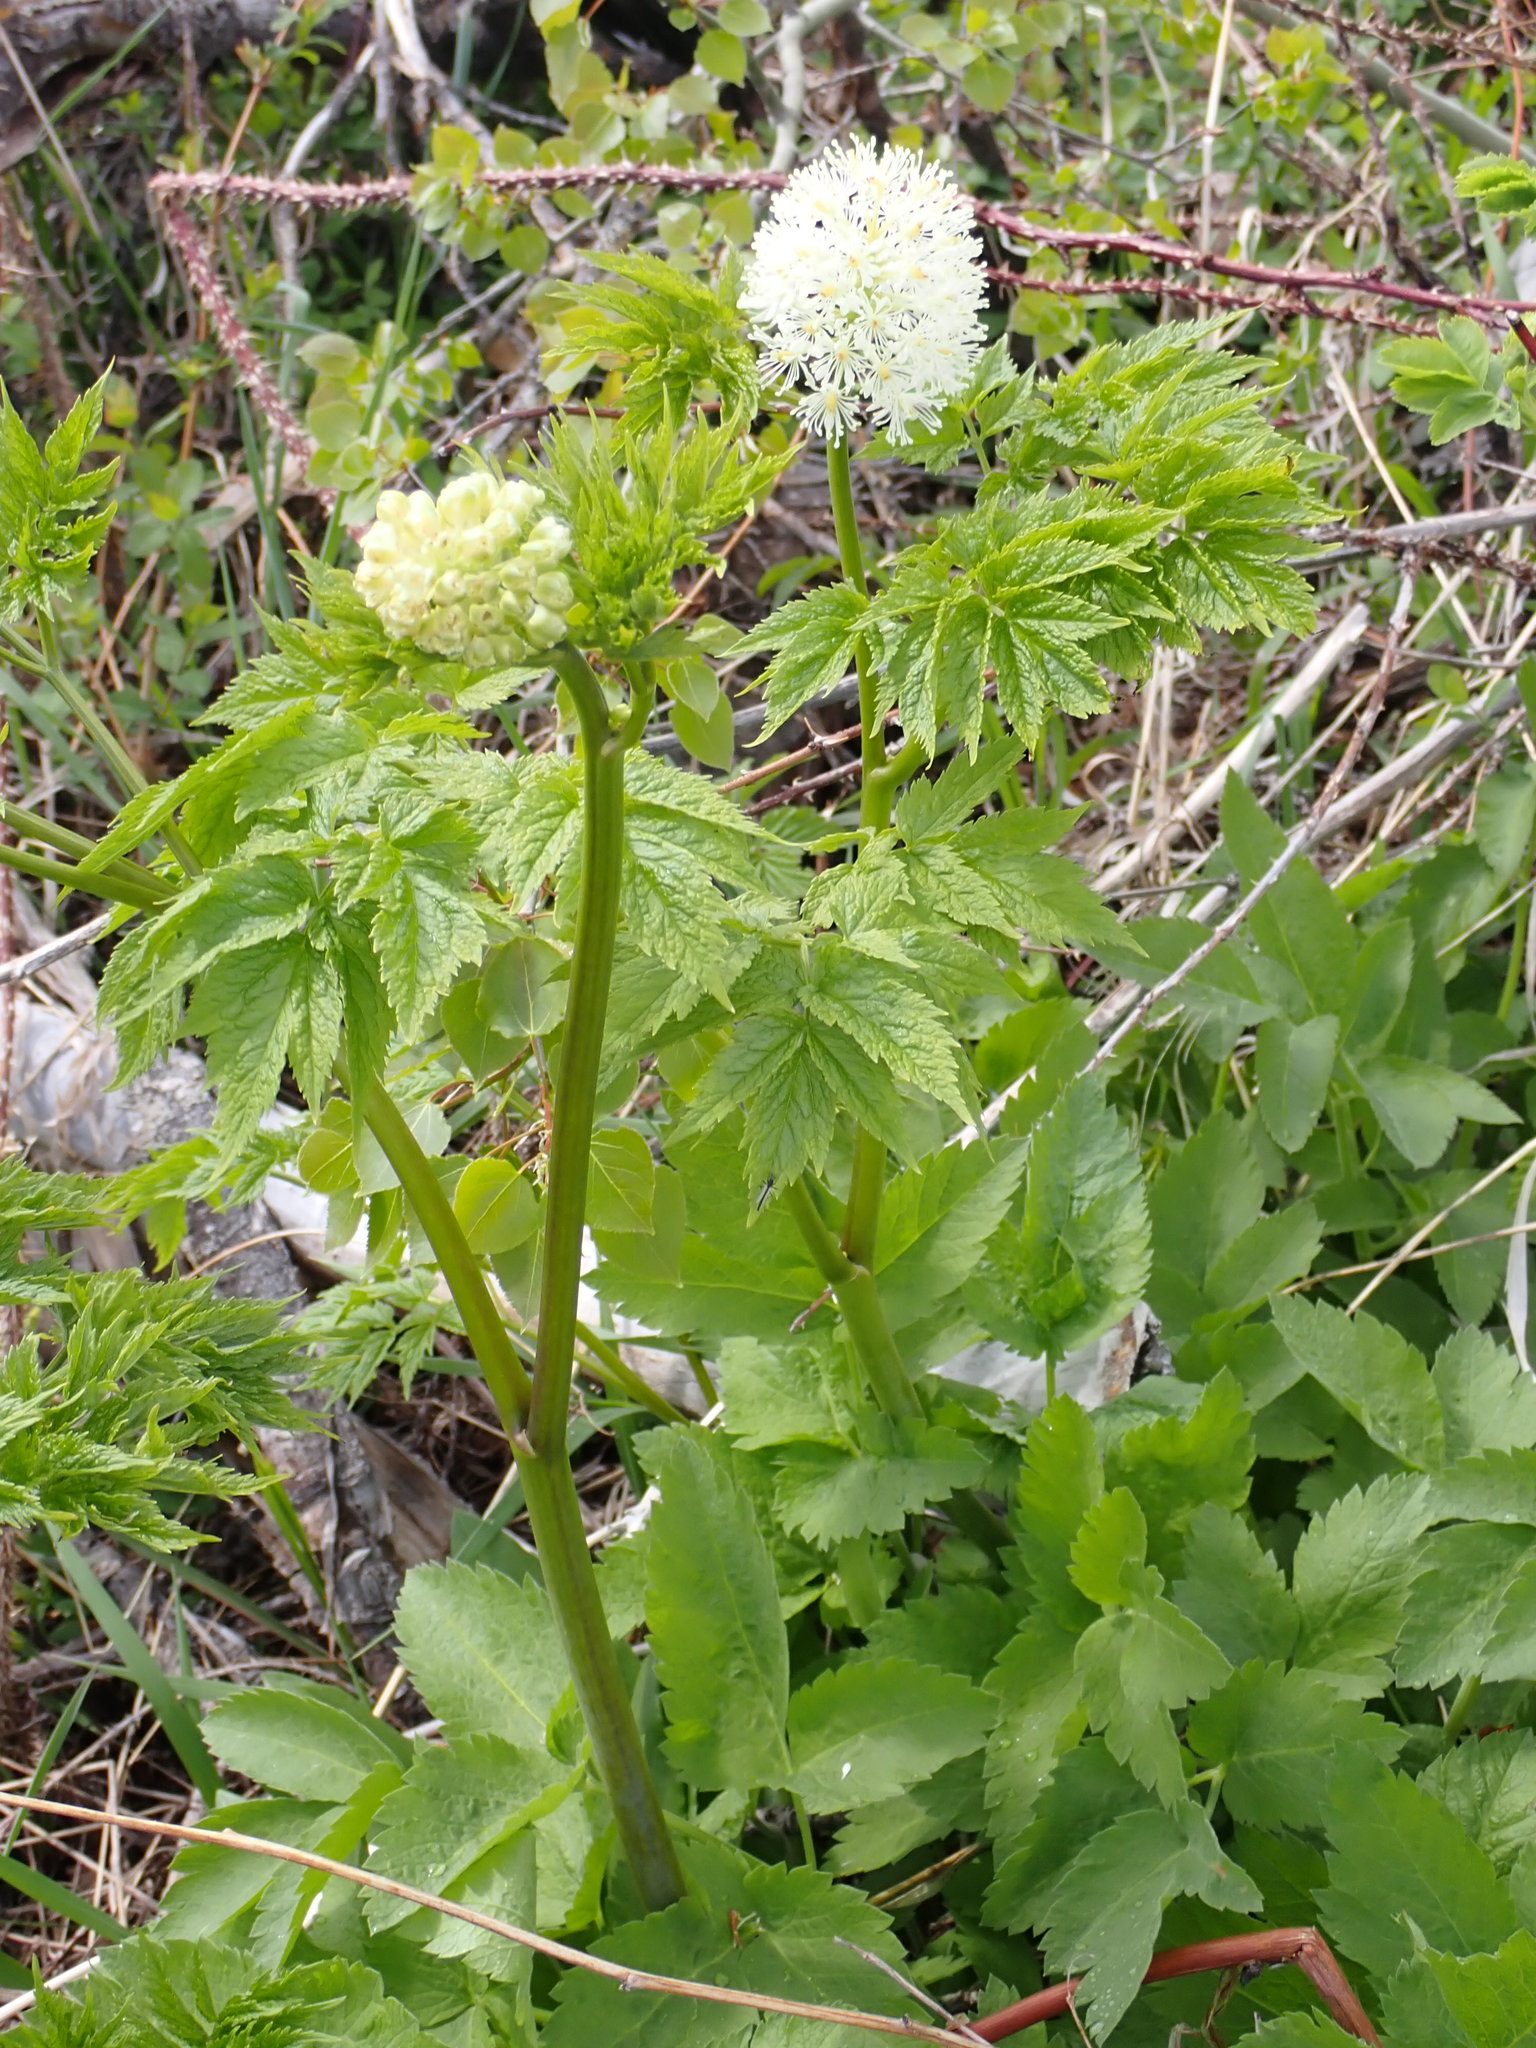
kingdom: Plantae
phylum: Tracheophyta
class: Magnoliopsida
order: Ranunculales
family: Ranunculaceae
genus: Actaea
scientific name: Actaea rubra
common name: Red baneberry
